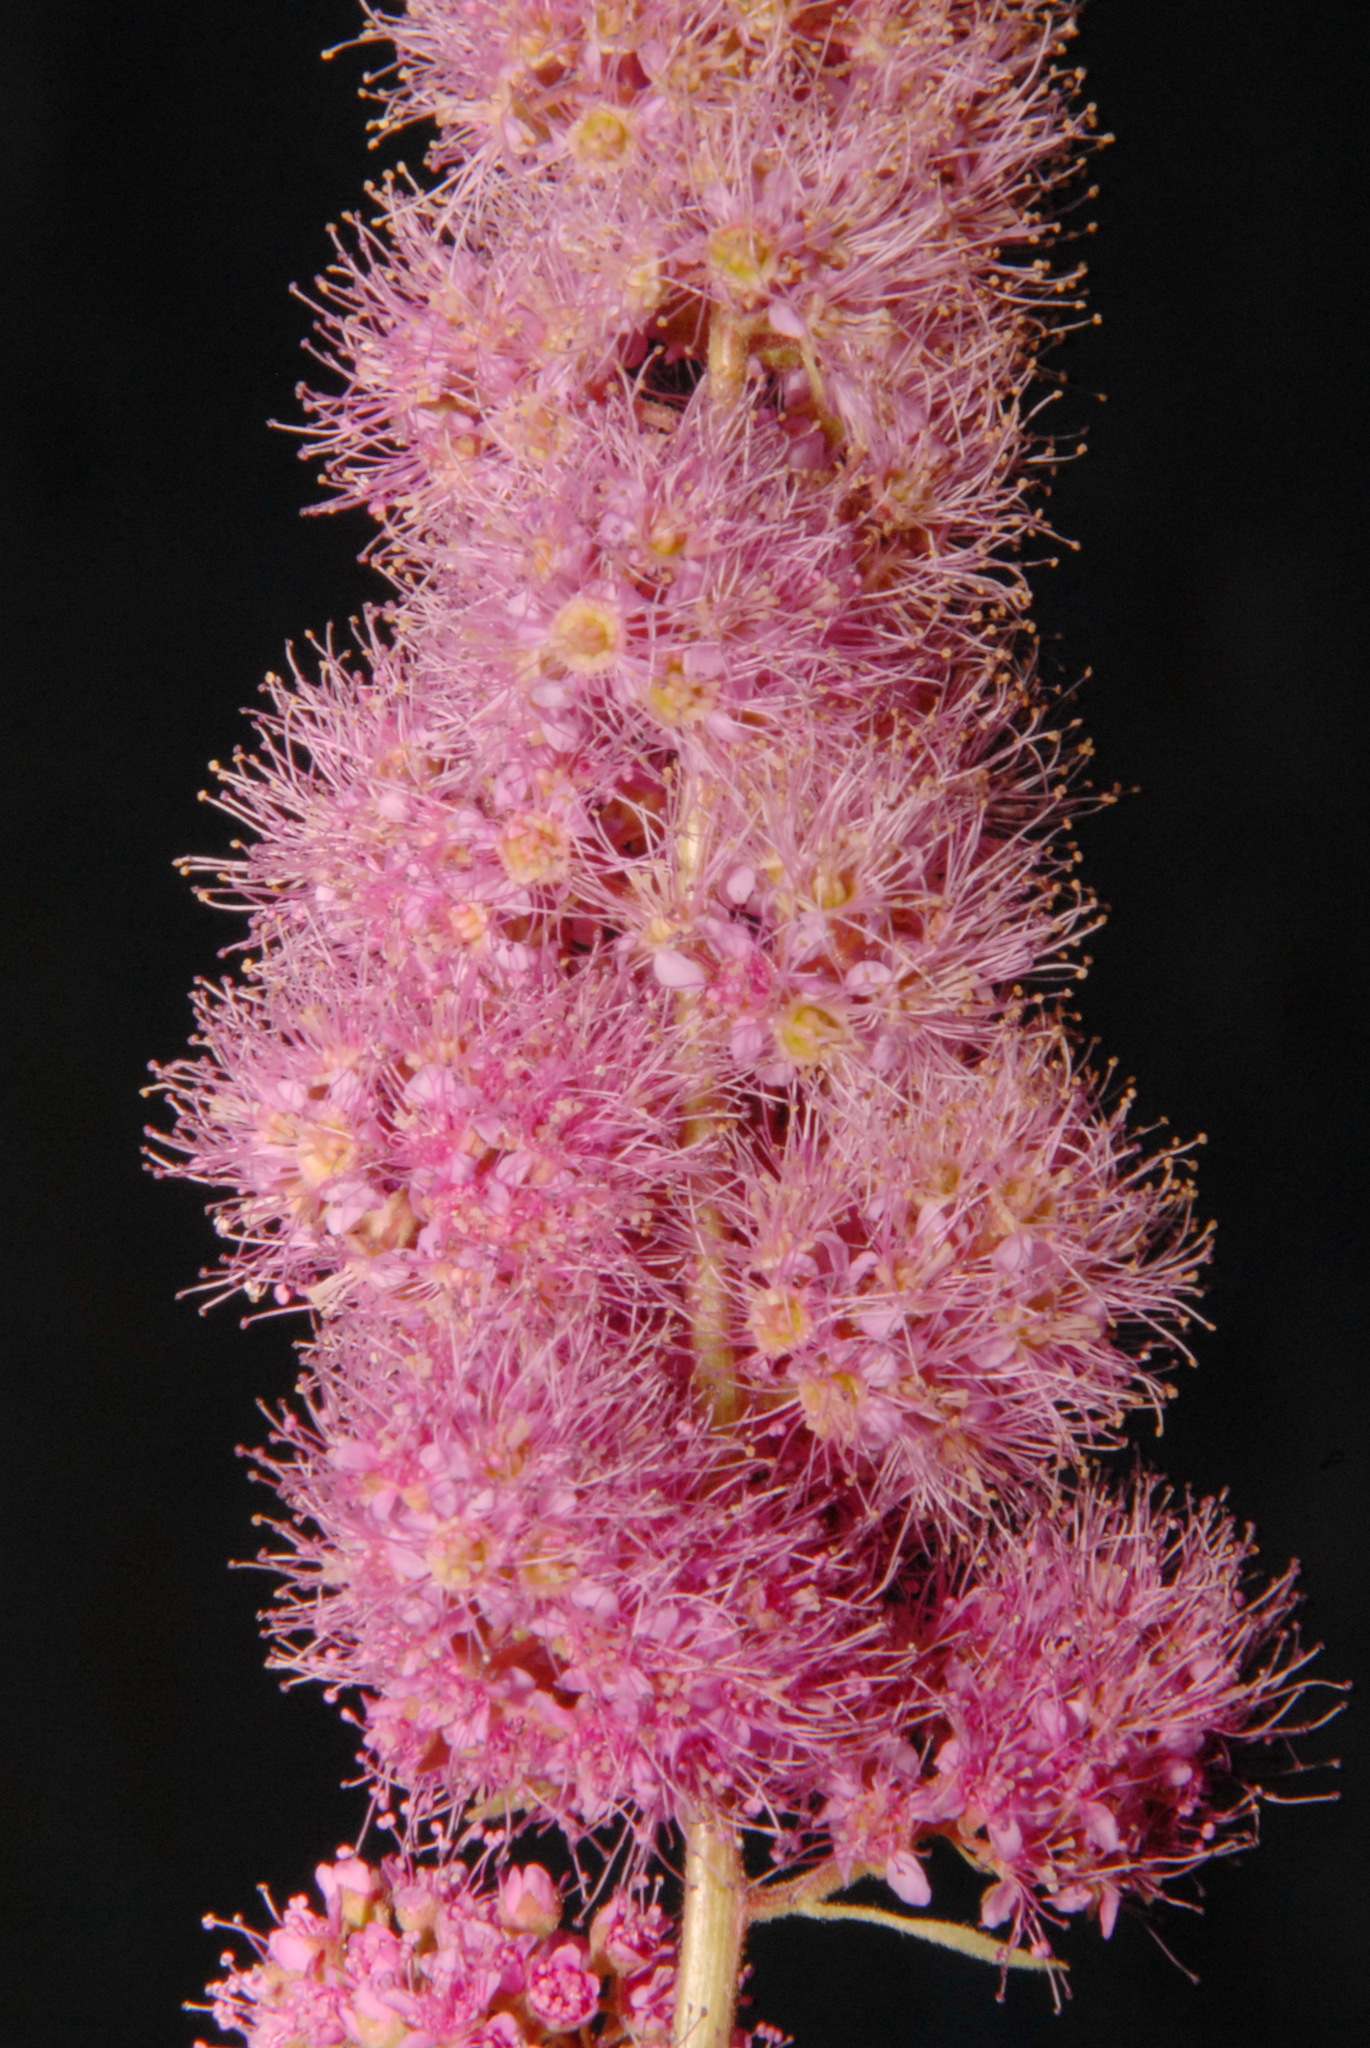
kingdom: Plantae
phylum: Tracheophyta
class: Magnoliopsida
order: Rosales
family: Rosaceae
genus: Spiraea
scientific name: Spiraea douglasii
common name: Steeplebush
